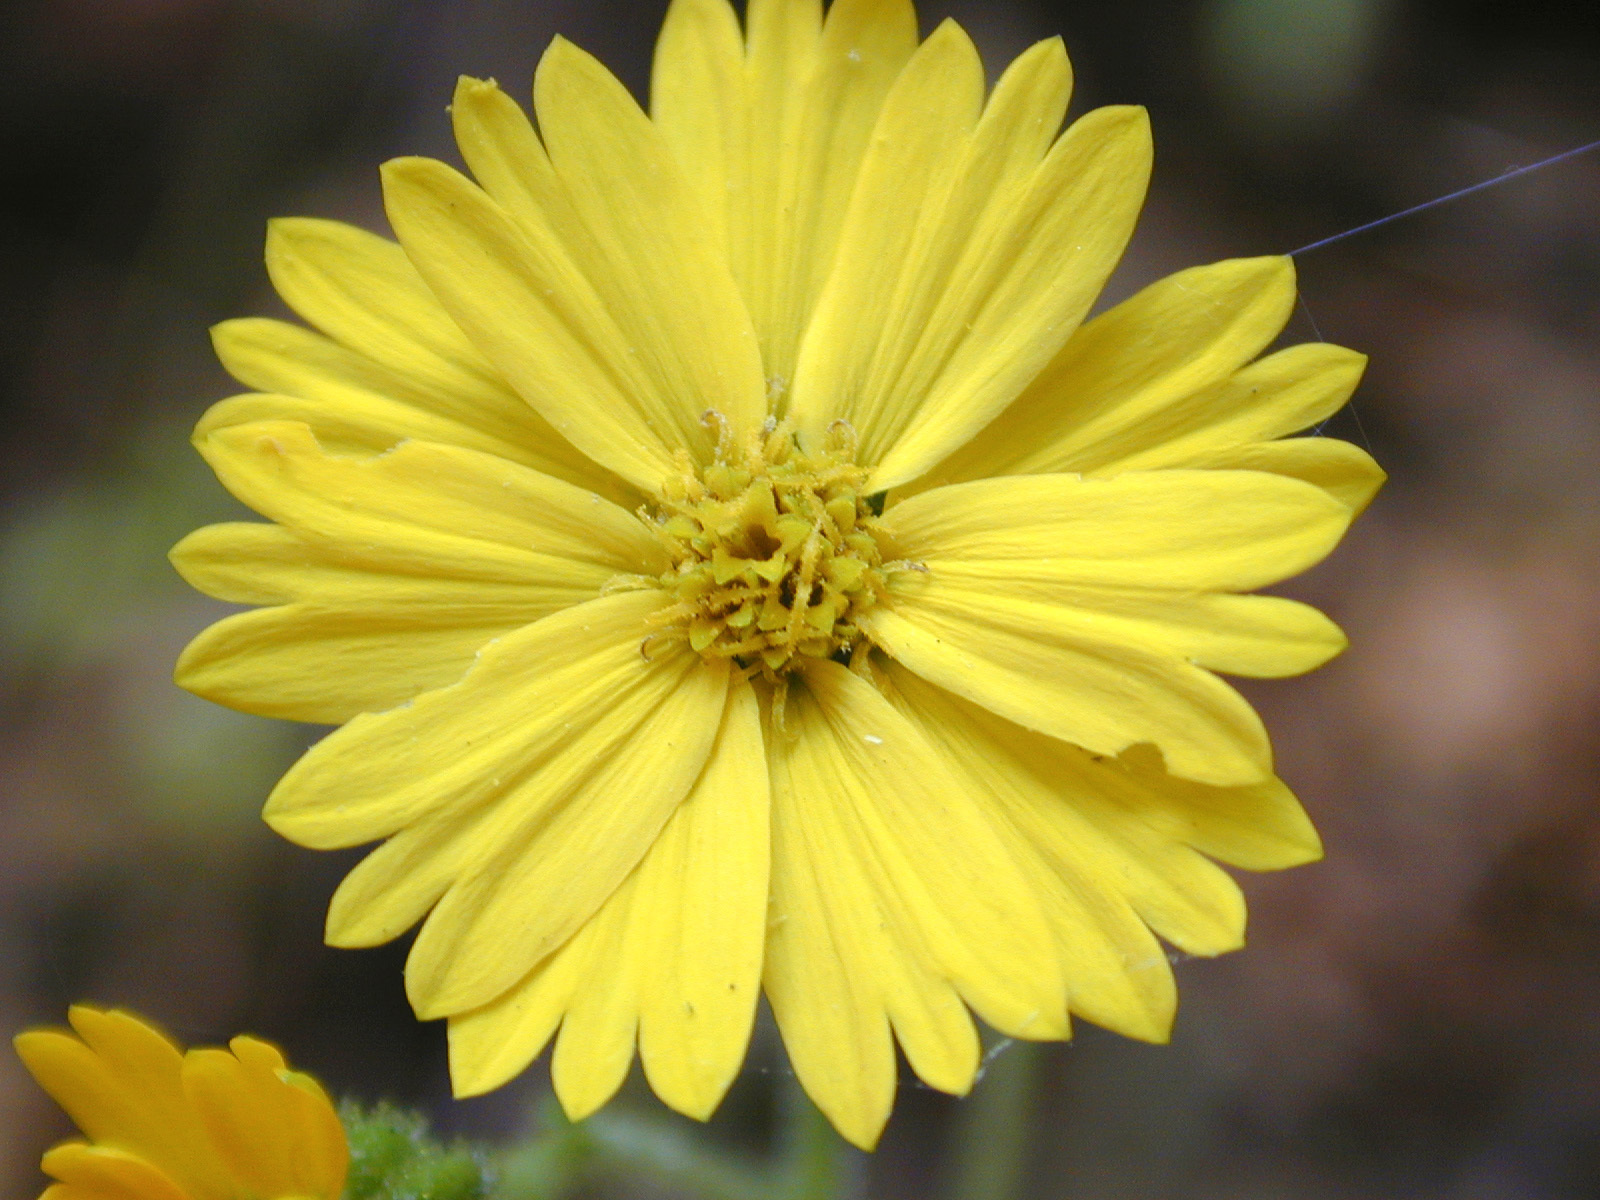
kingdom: Plantae
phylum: Tracheophyta
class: Magnoliopsida
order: Asterales
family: Asteraceae
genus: Madia
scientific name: Madia elegans
